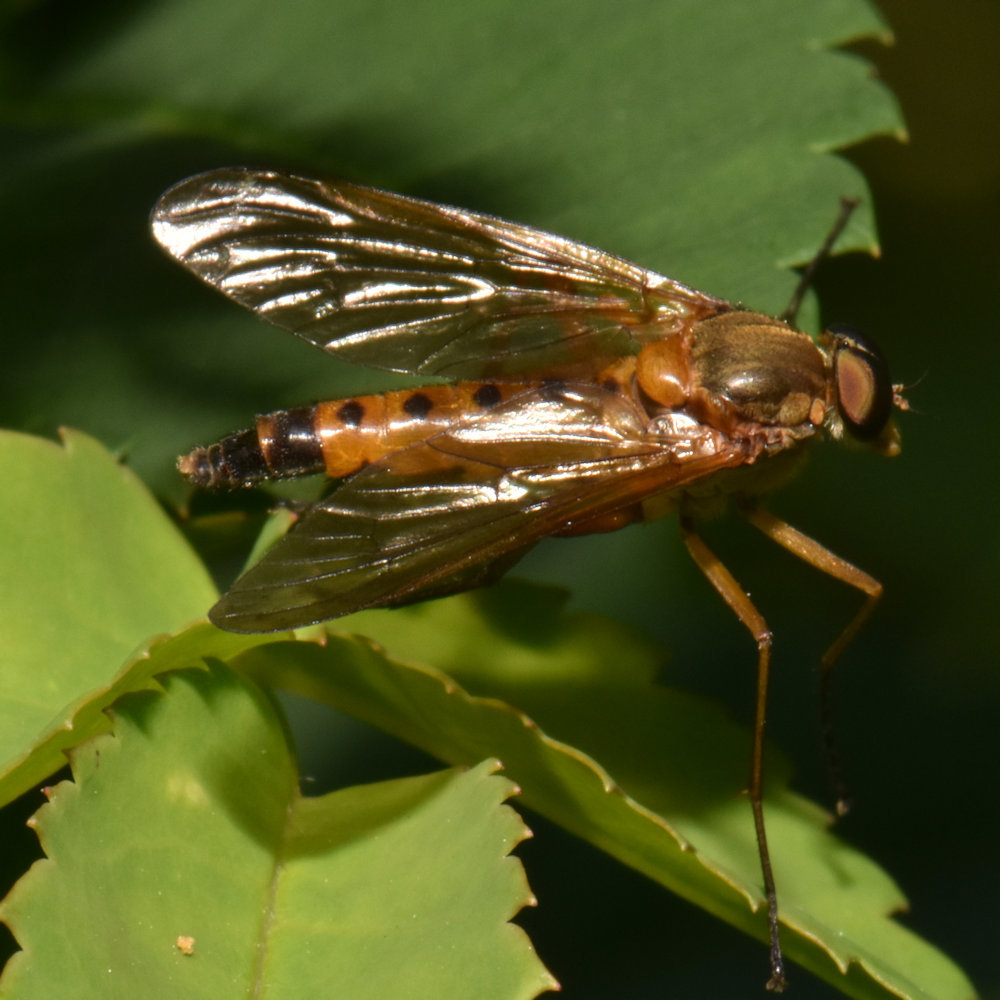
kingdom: Animalia
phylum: Arthropoda
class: Insecta
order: Diptera
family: Rhagionidae
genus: Rhagio
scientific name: Rhagio tringaria
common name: Marsh snipefly
